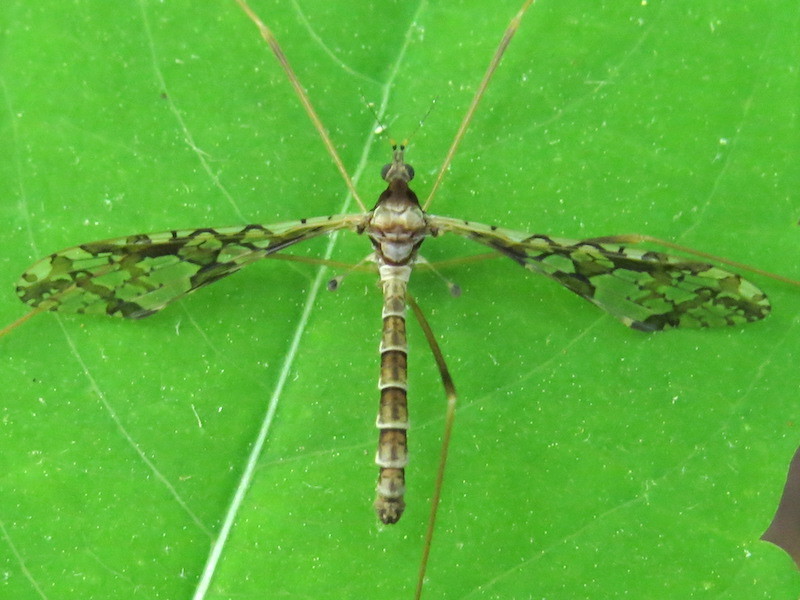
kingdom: Animalia
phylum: Arthropoda
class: Insecta
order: Diptera
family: Limoniidae
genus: Epiphragma
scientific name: Epiphragma solatrix
